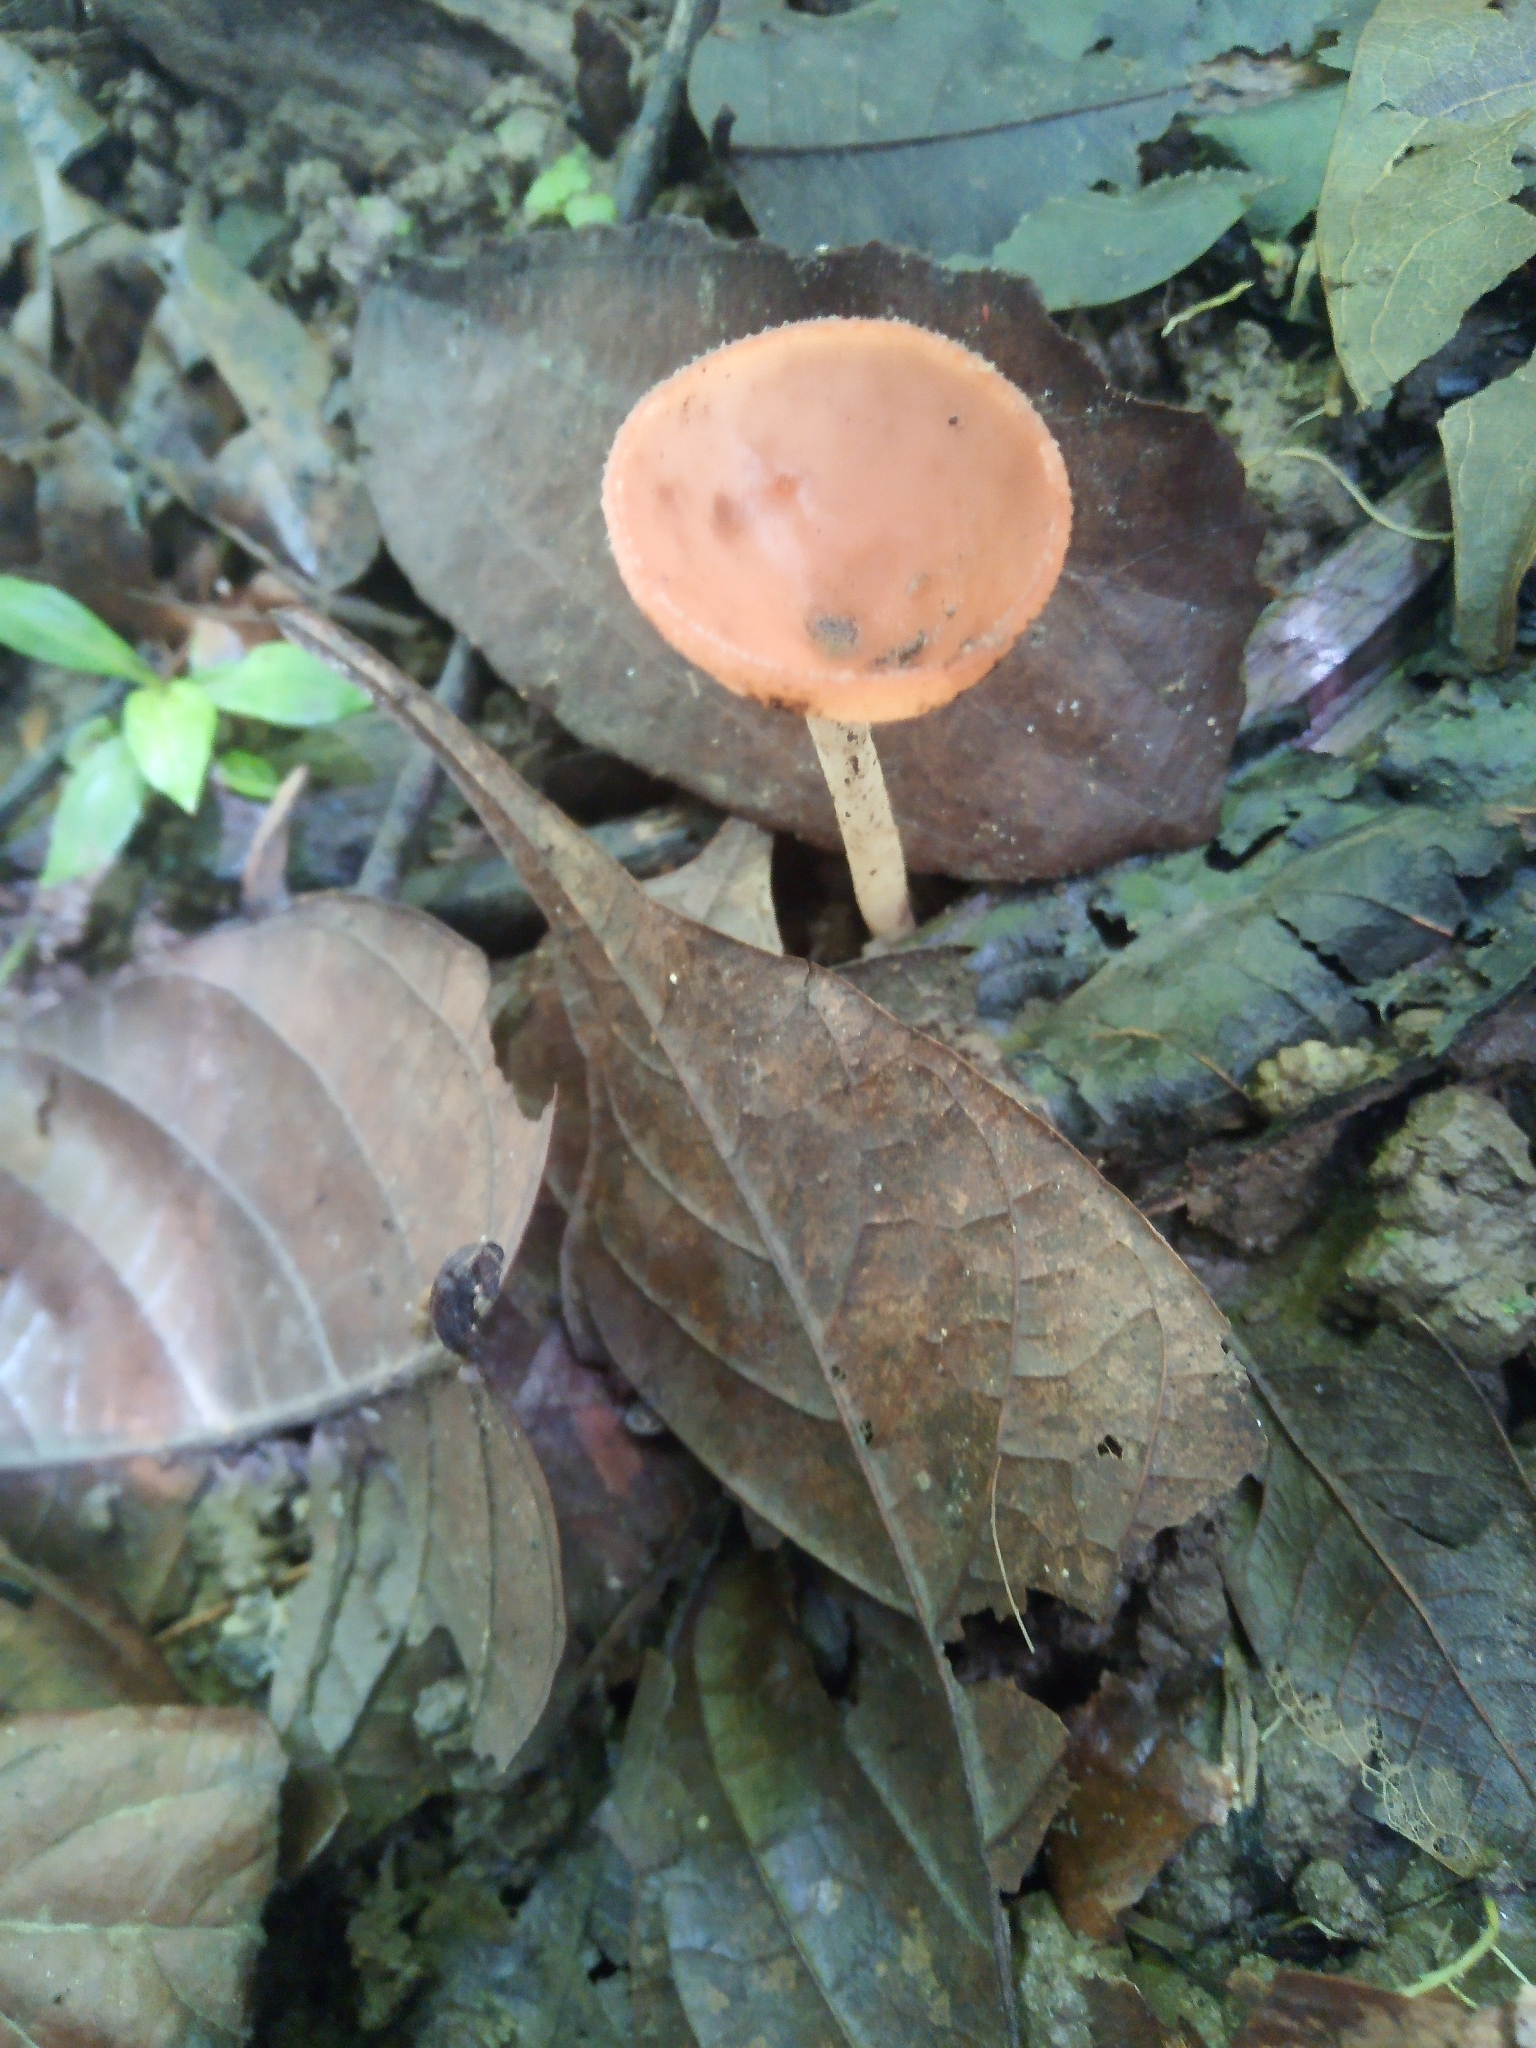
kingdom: Fungi
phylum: Ascomycota
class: Pezizomycetes
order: Pezizales
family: Sarcoscyphaceae
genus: Cookeina
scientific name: Cookeina speciosa
